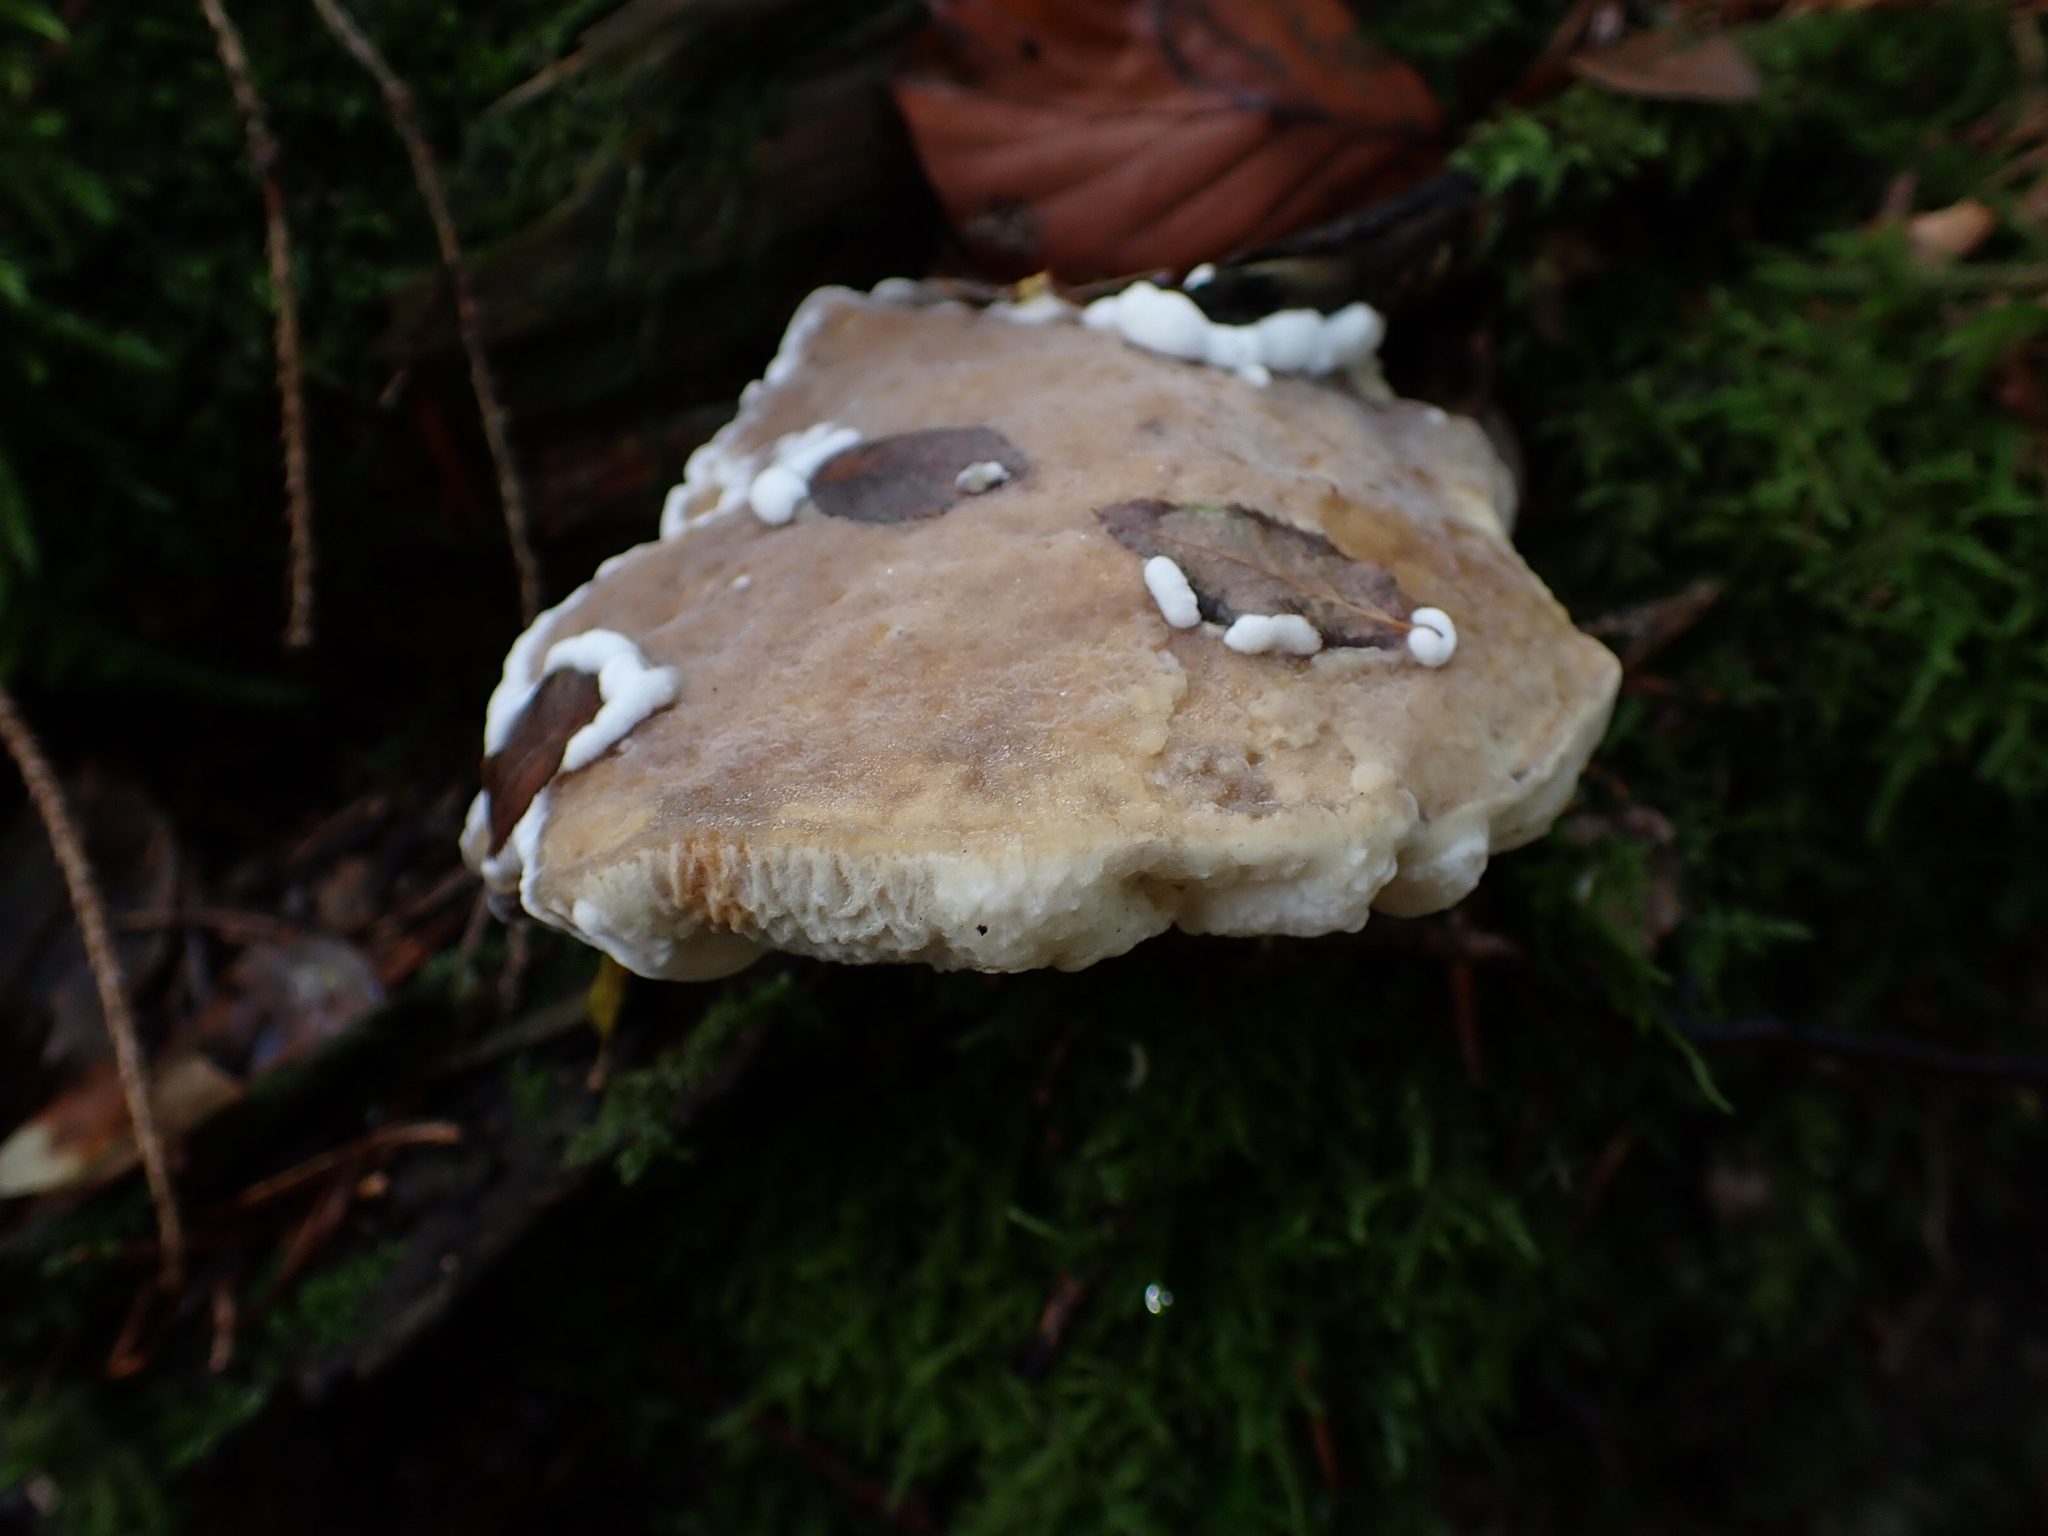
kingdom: Fungi
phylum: Ascomycota
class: Sordariomycetes
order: Hypocreales
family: Hypocreaceae
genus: Hypomyces
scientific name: Hypomyces chrysospermus
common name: Bolete mould
